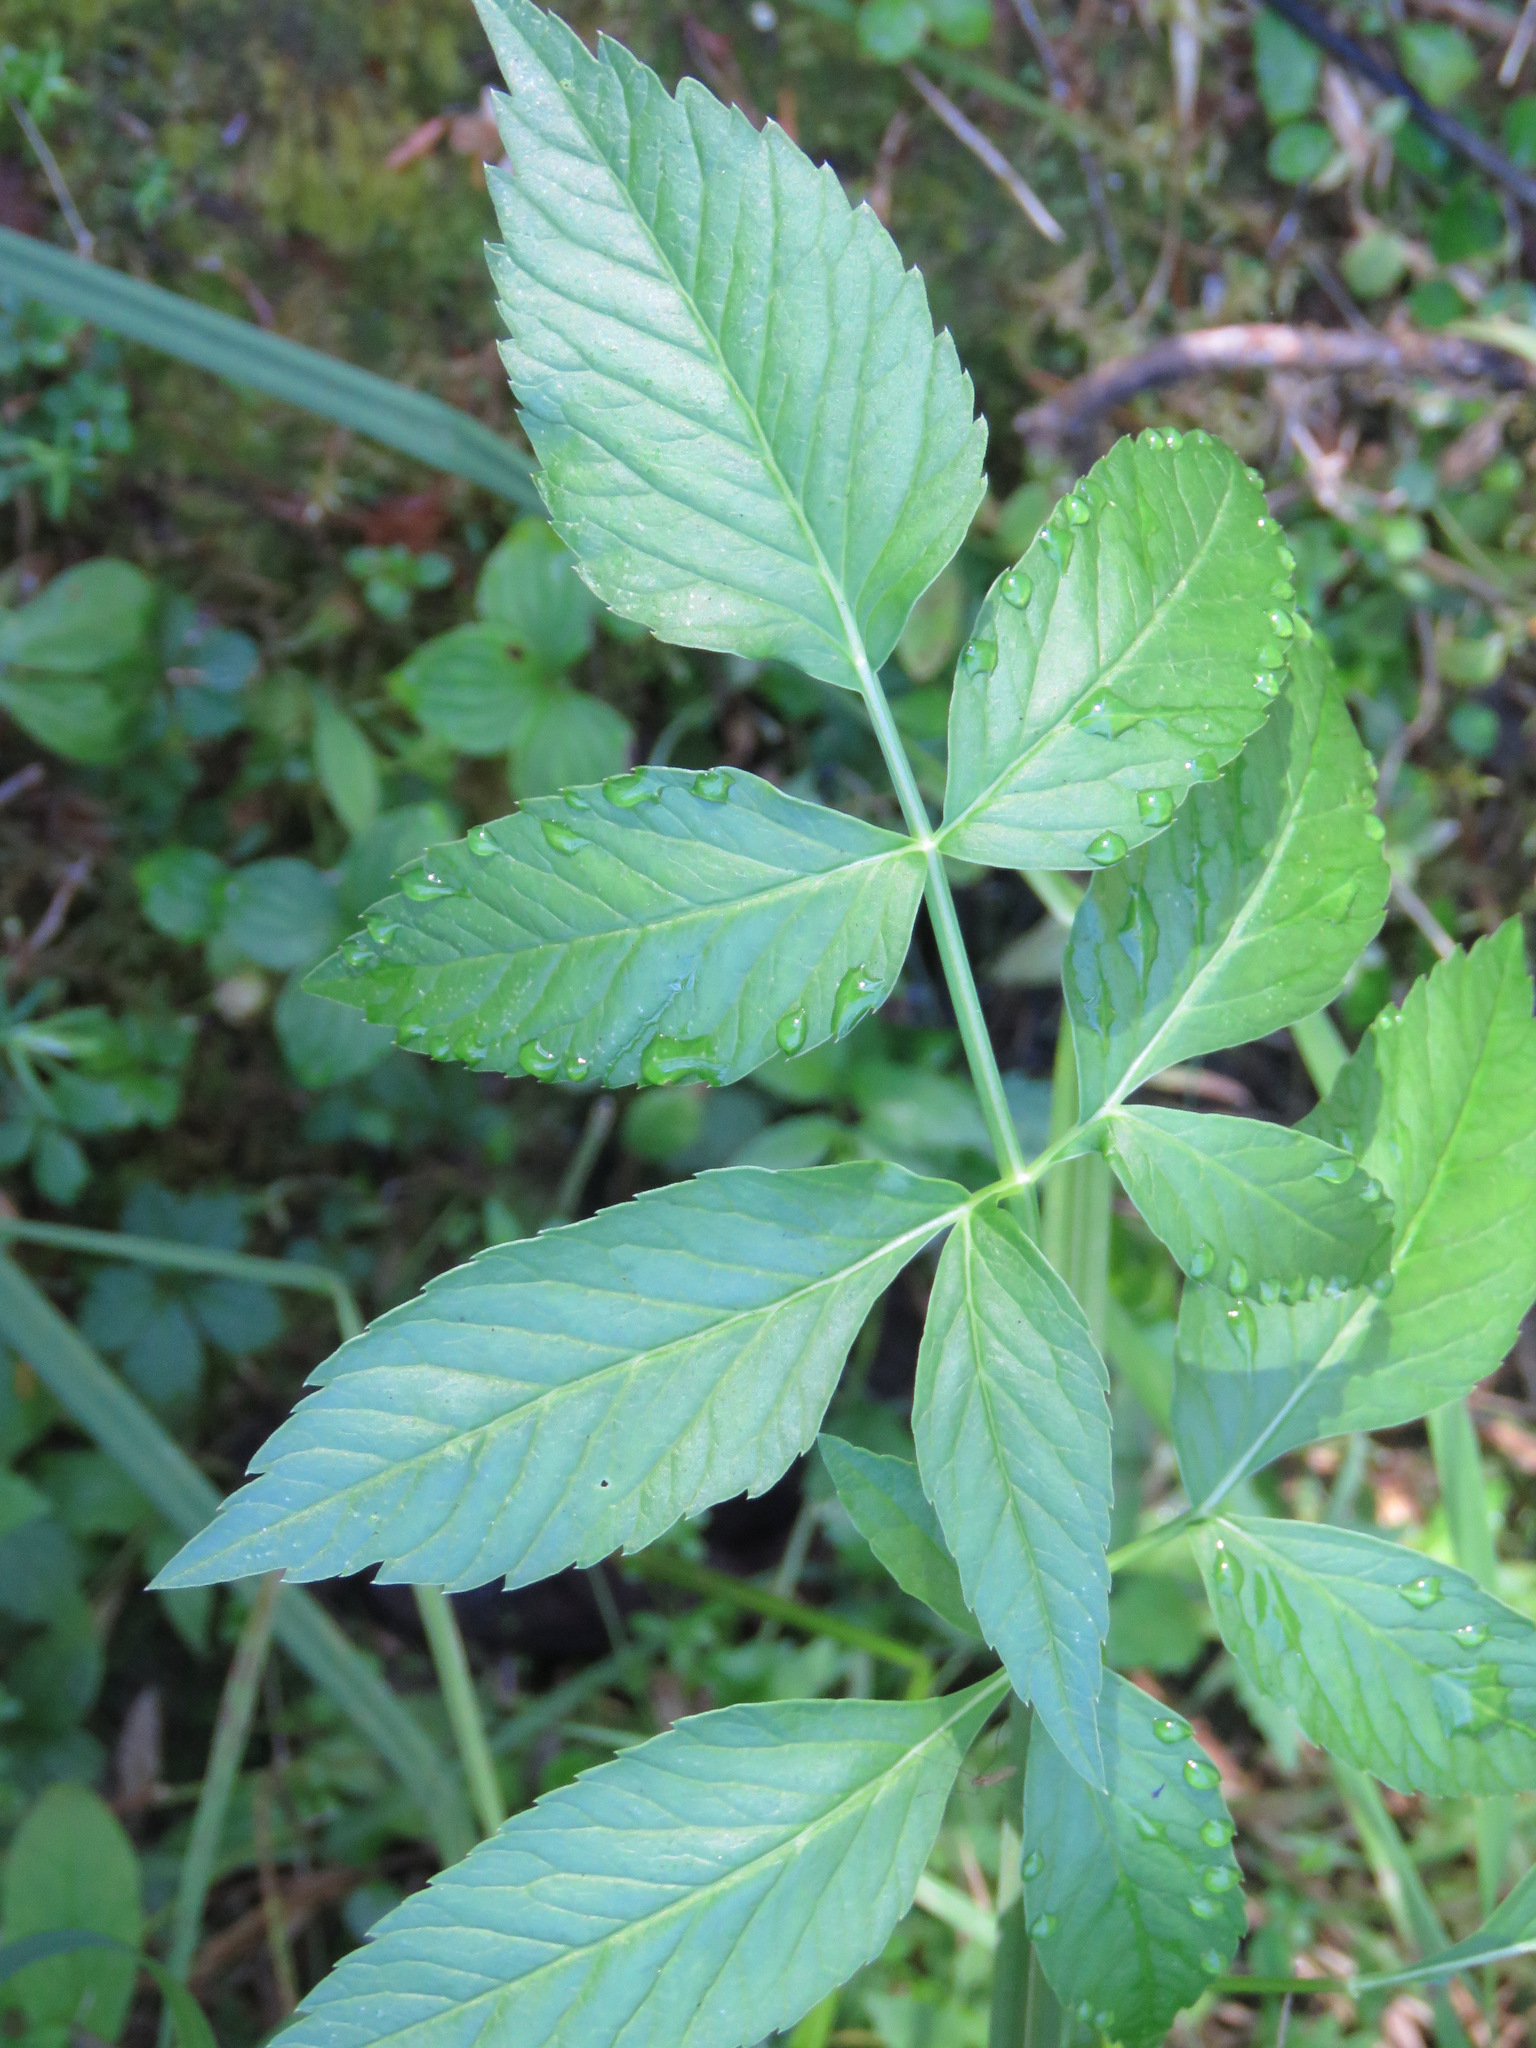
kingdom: Plantae
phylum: Tracheophyta
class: Magnoliopsida
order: Apiales
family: Apiaceae
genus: Cicuta
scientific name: Cicuta douglasii
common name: Western water-hemlock
